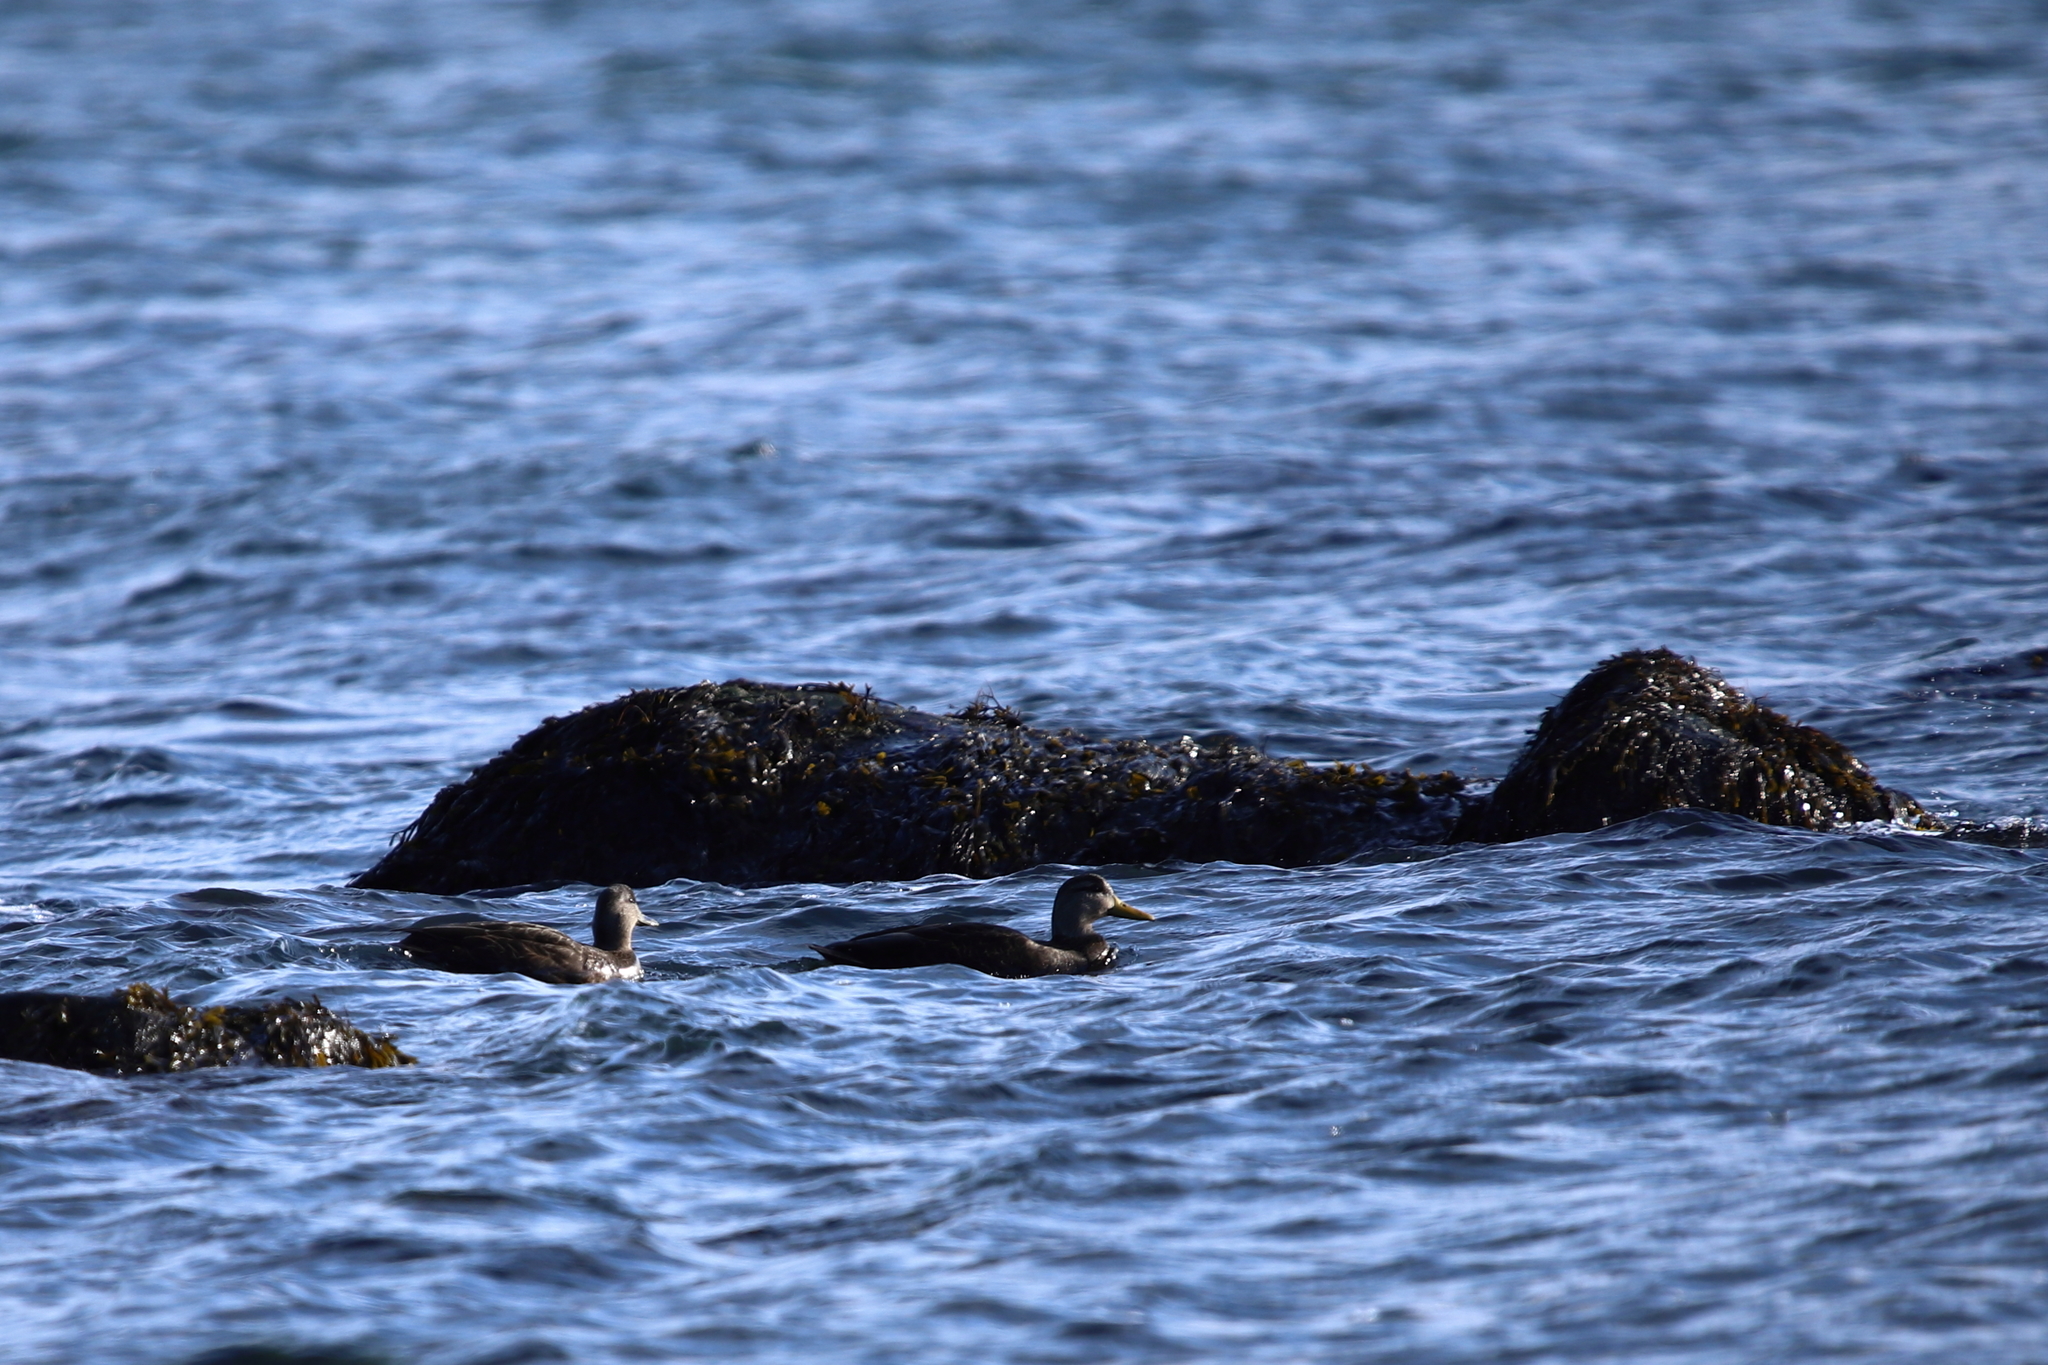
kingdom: Animalia
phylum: Chordata
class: Aves
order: Anseriformes
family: Anatidae
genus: Anas
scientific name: Anas rubripes
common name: American black duck
